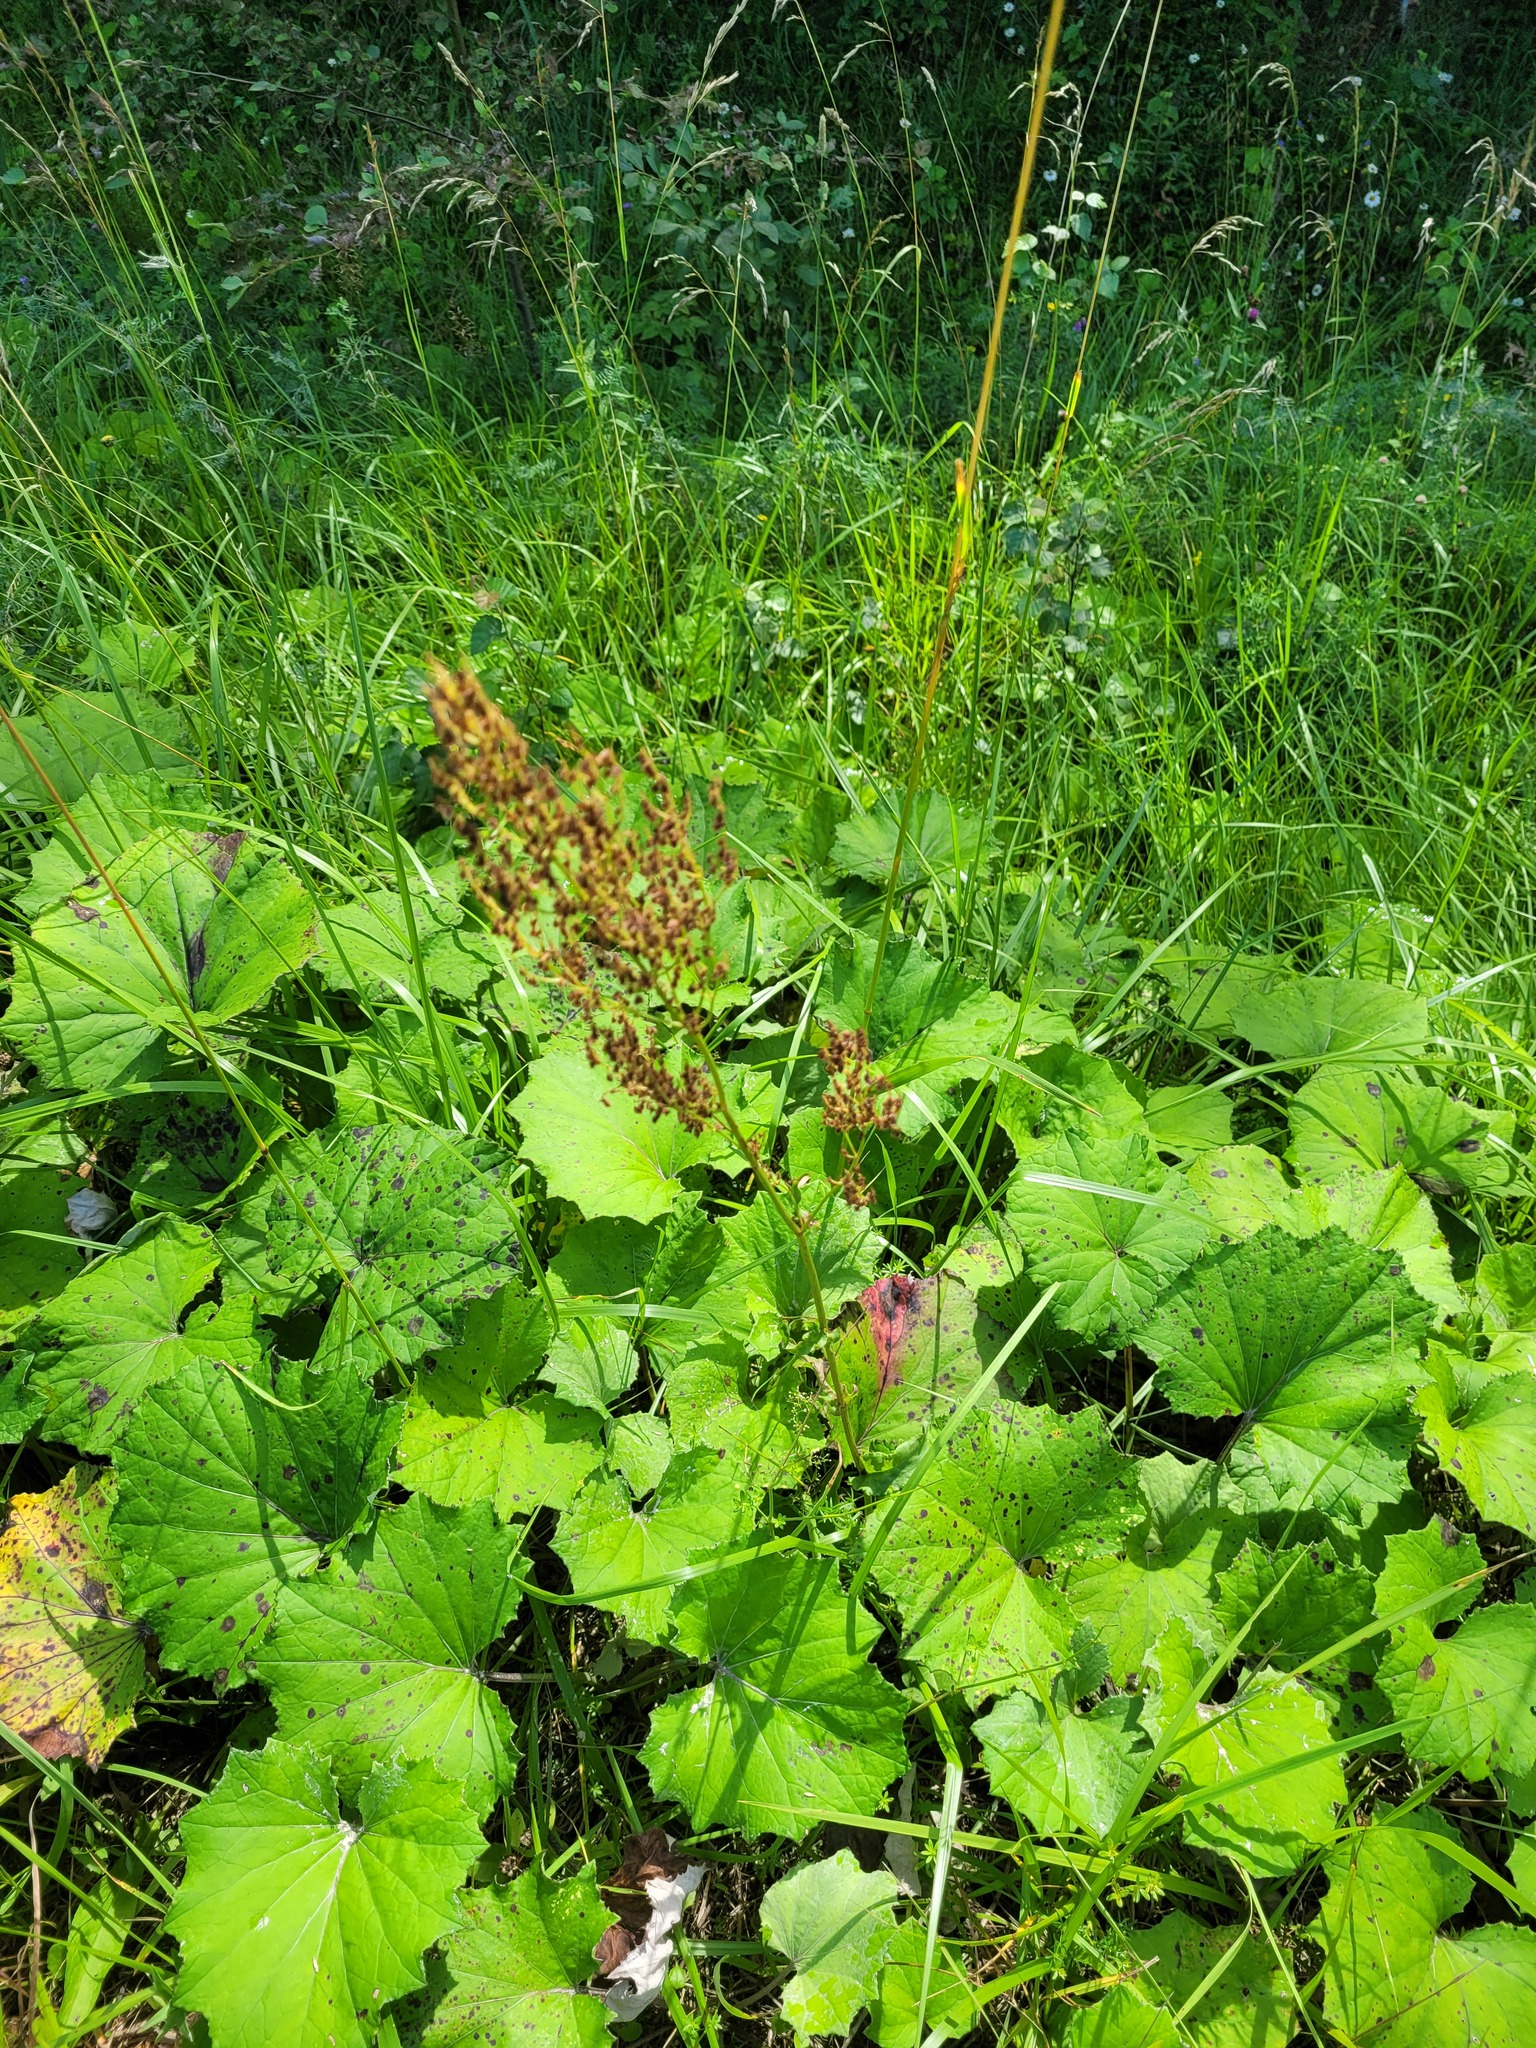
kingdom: Plantae
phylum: Tracheophyta
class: Magnoliopsida
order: Caryophyllales
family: Polygonaceae
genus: Rumex
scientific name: Rumex thyrsiflorus
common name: Garden sorrel
